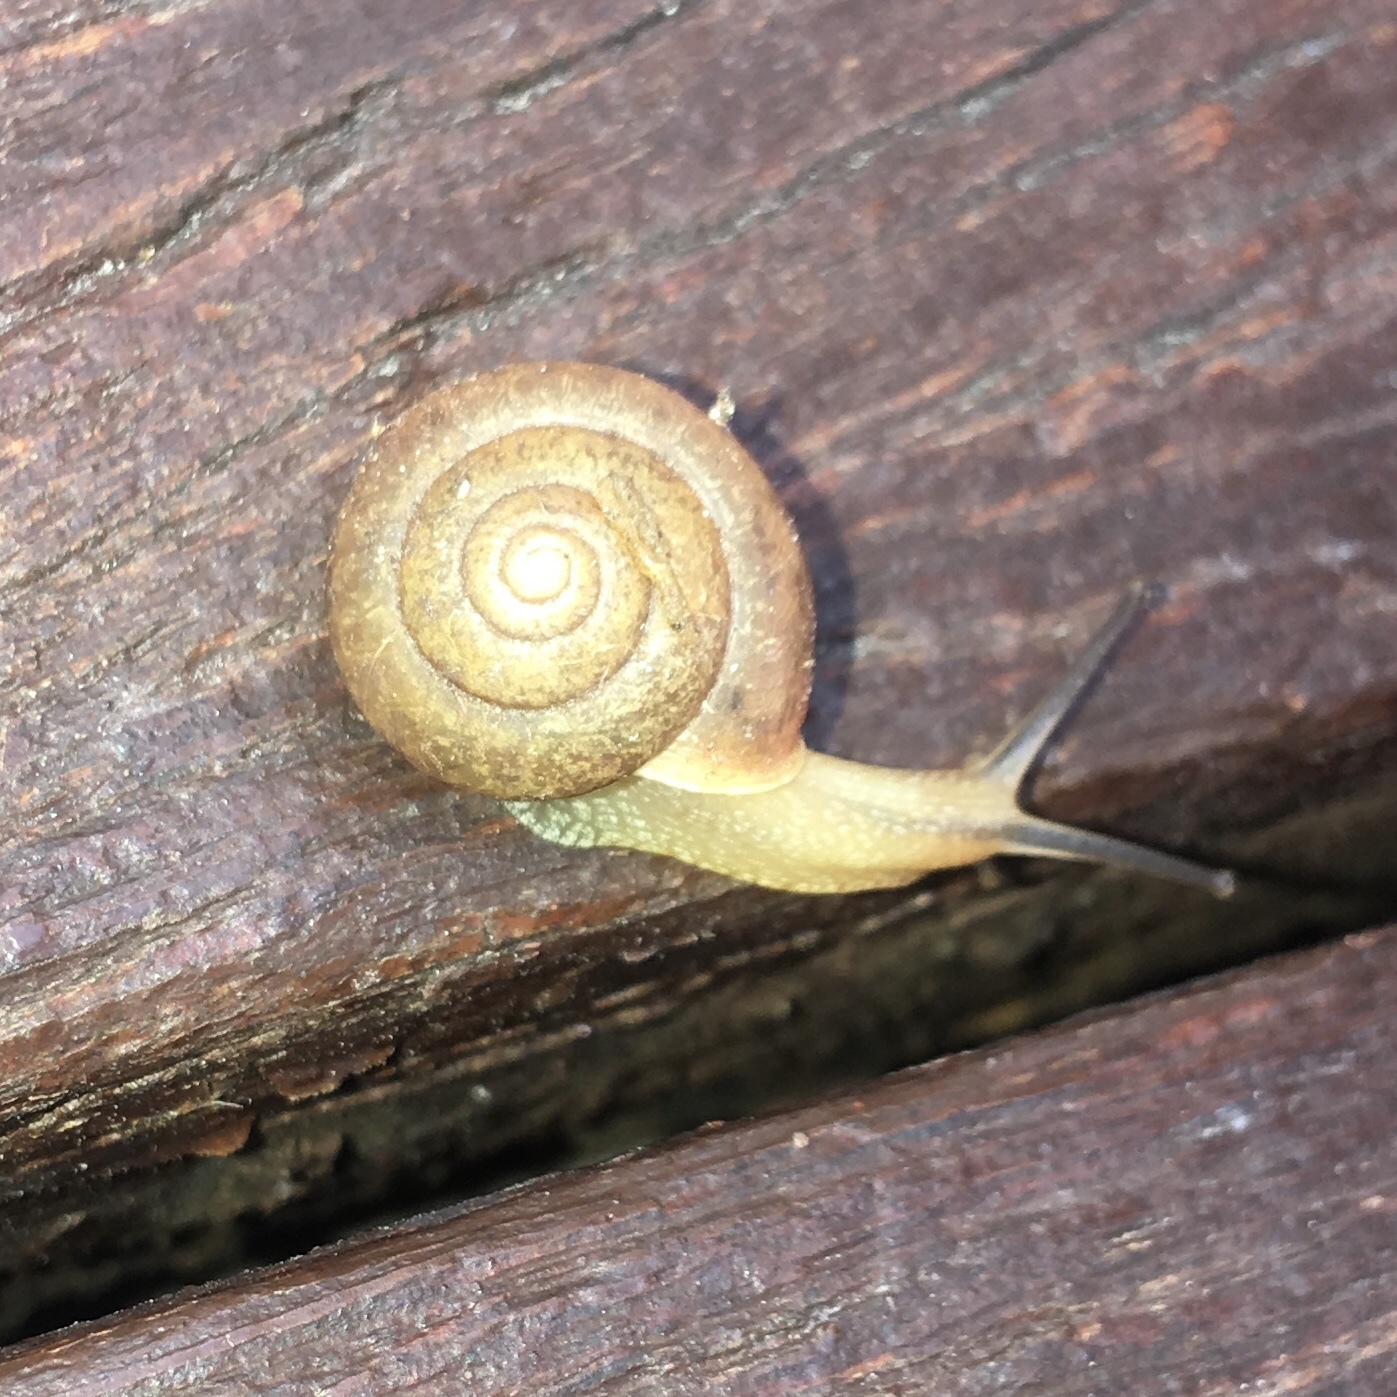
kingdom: Animalia
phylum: Mollusca
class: Gastropoda
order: Stylommatophora
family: Camaenidae
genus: Bradybaena
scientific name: Bradybaena similaris
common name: Asian trampsnail
